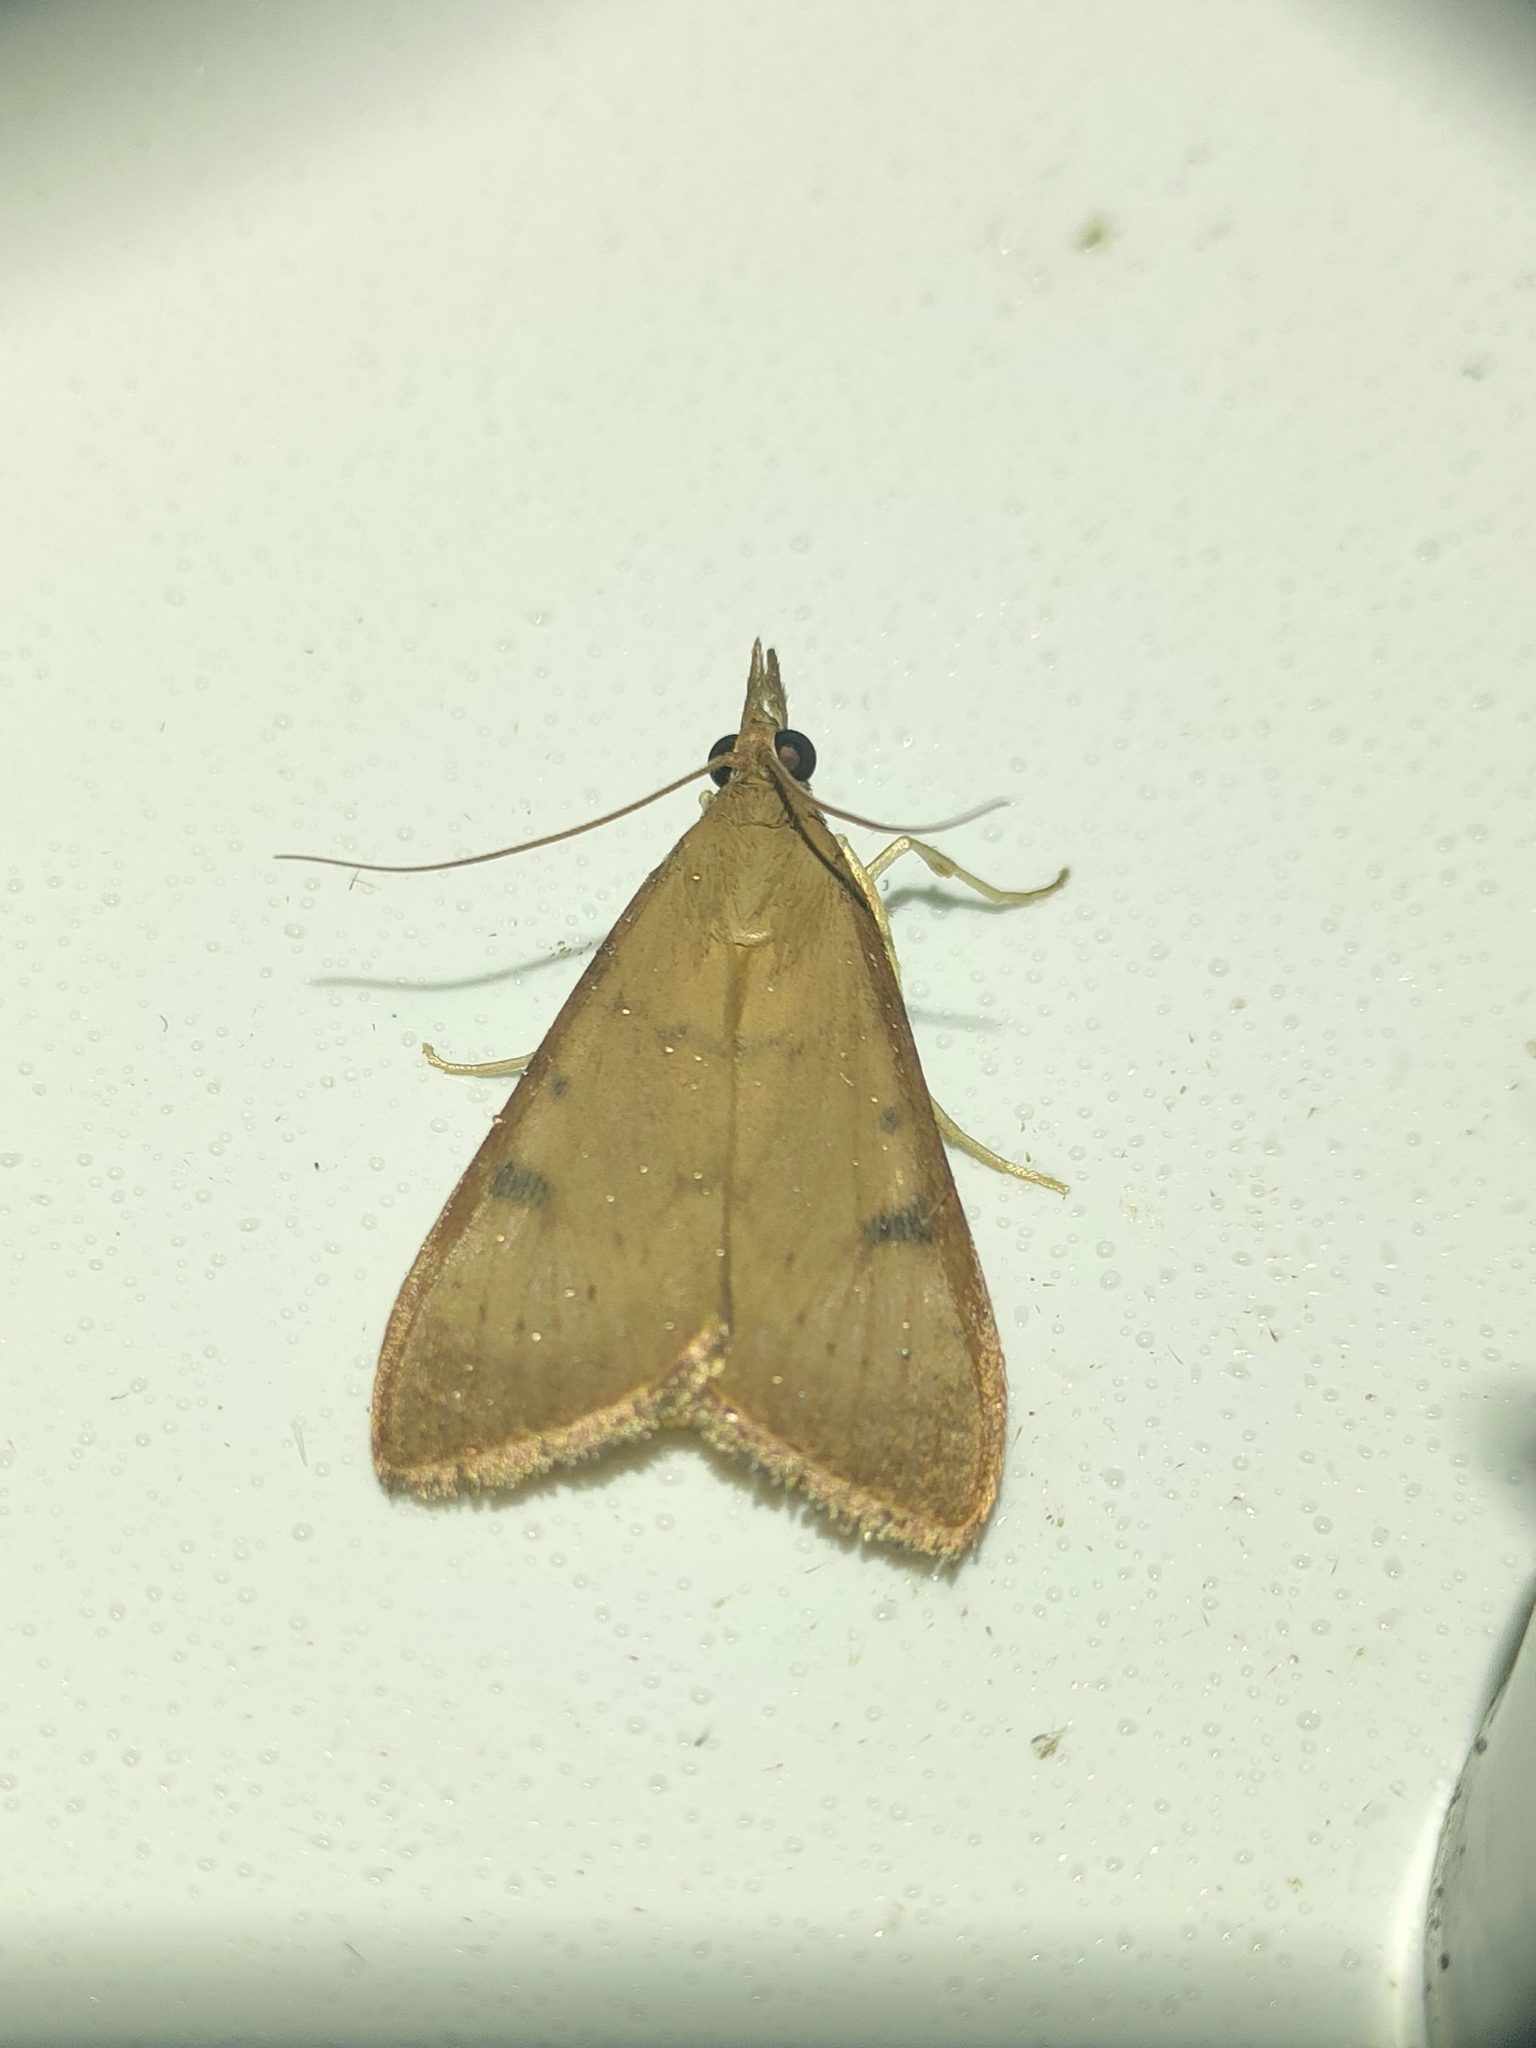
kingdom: Animalia
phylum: Arthropoda
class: Insecta
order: Lepidoptera
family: Crambidae
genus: Uresiphita
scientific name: Uresiphita gilvata
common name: Yellow-underwing pearl
